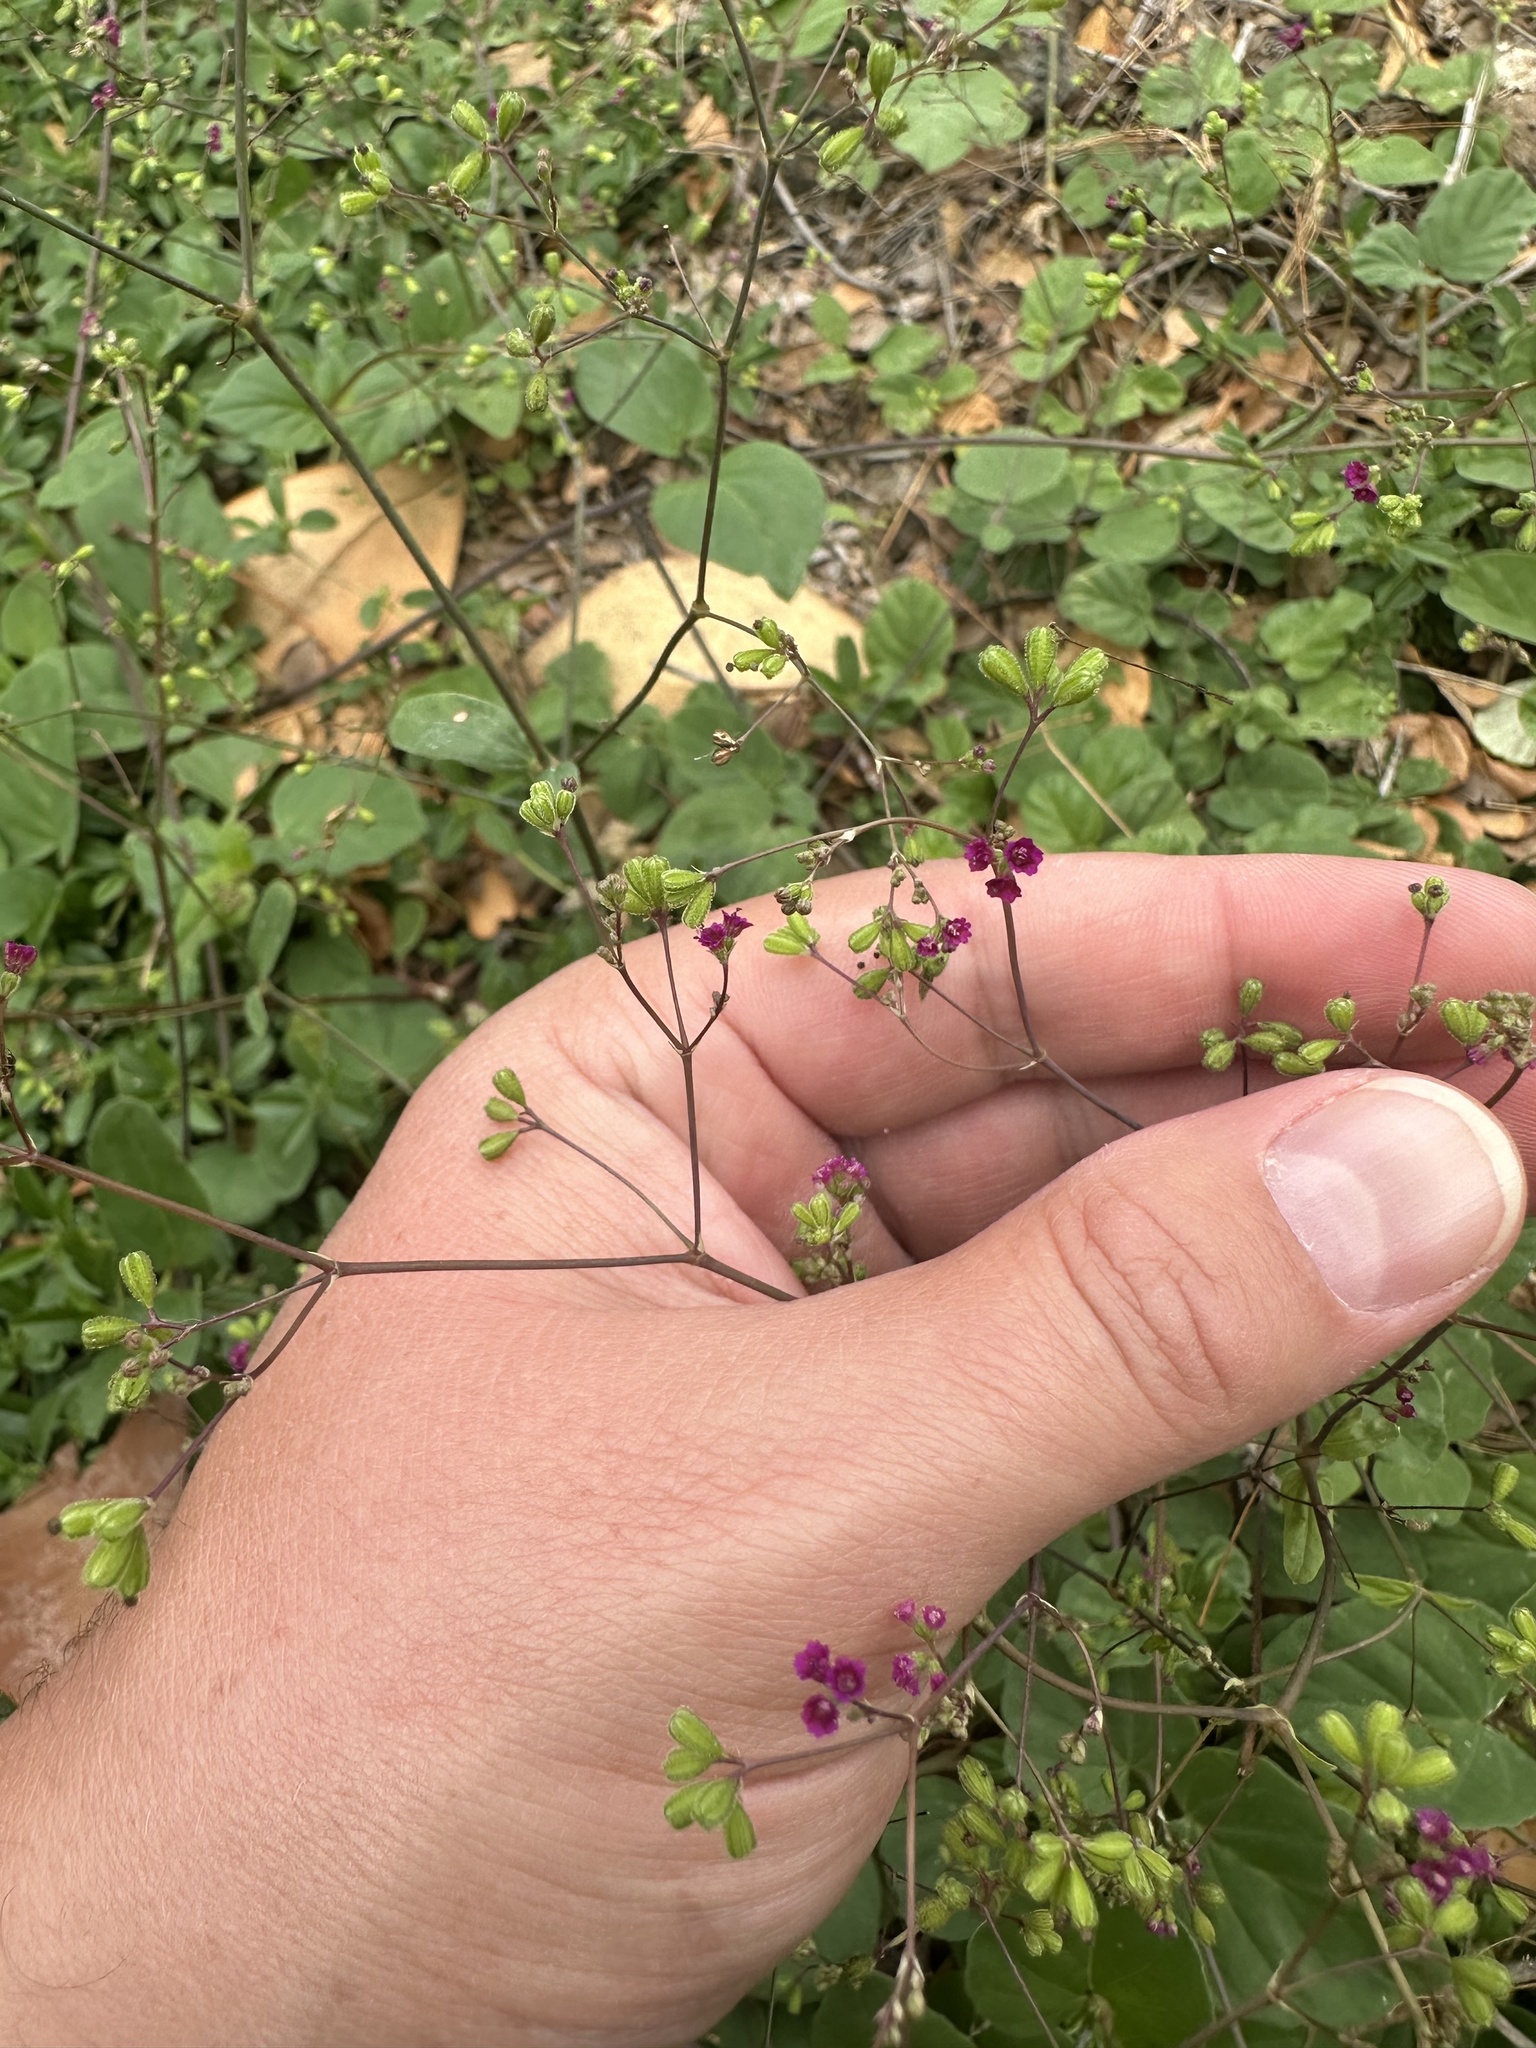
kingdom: Plantae
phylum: Tracheophyta
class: Magnoliopsida
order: Caryophyllales
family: Nyctaginaceae
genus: Boerhavia
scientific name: Boerhavia diffusa
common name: Red spiderling
